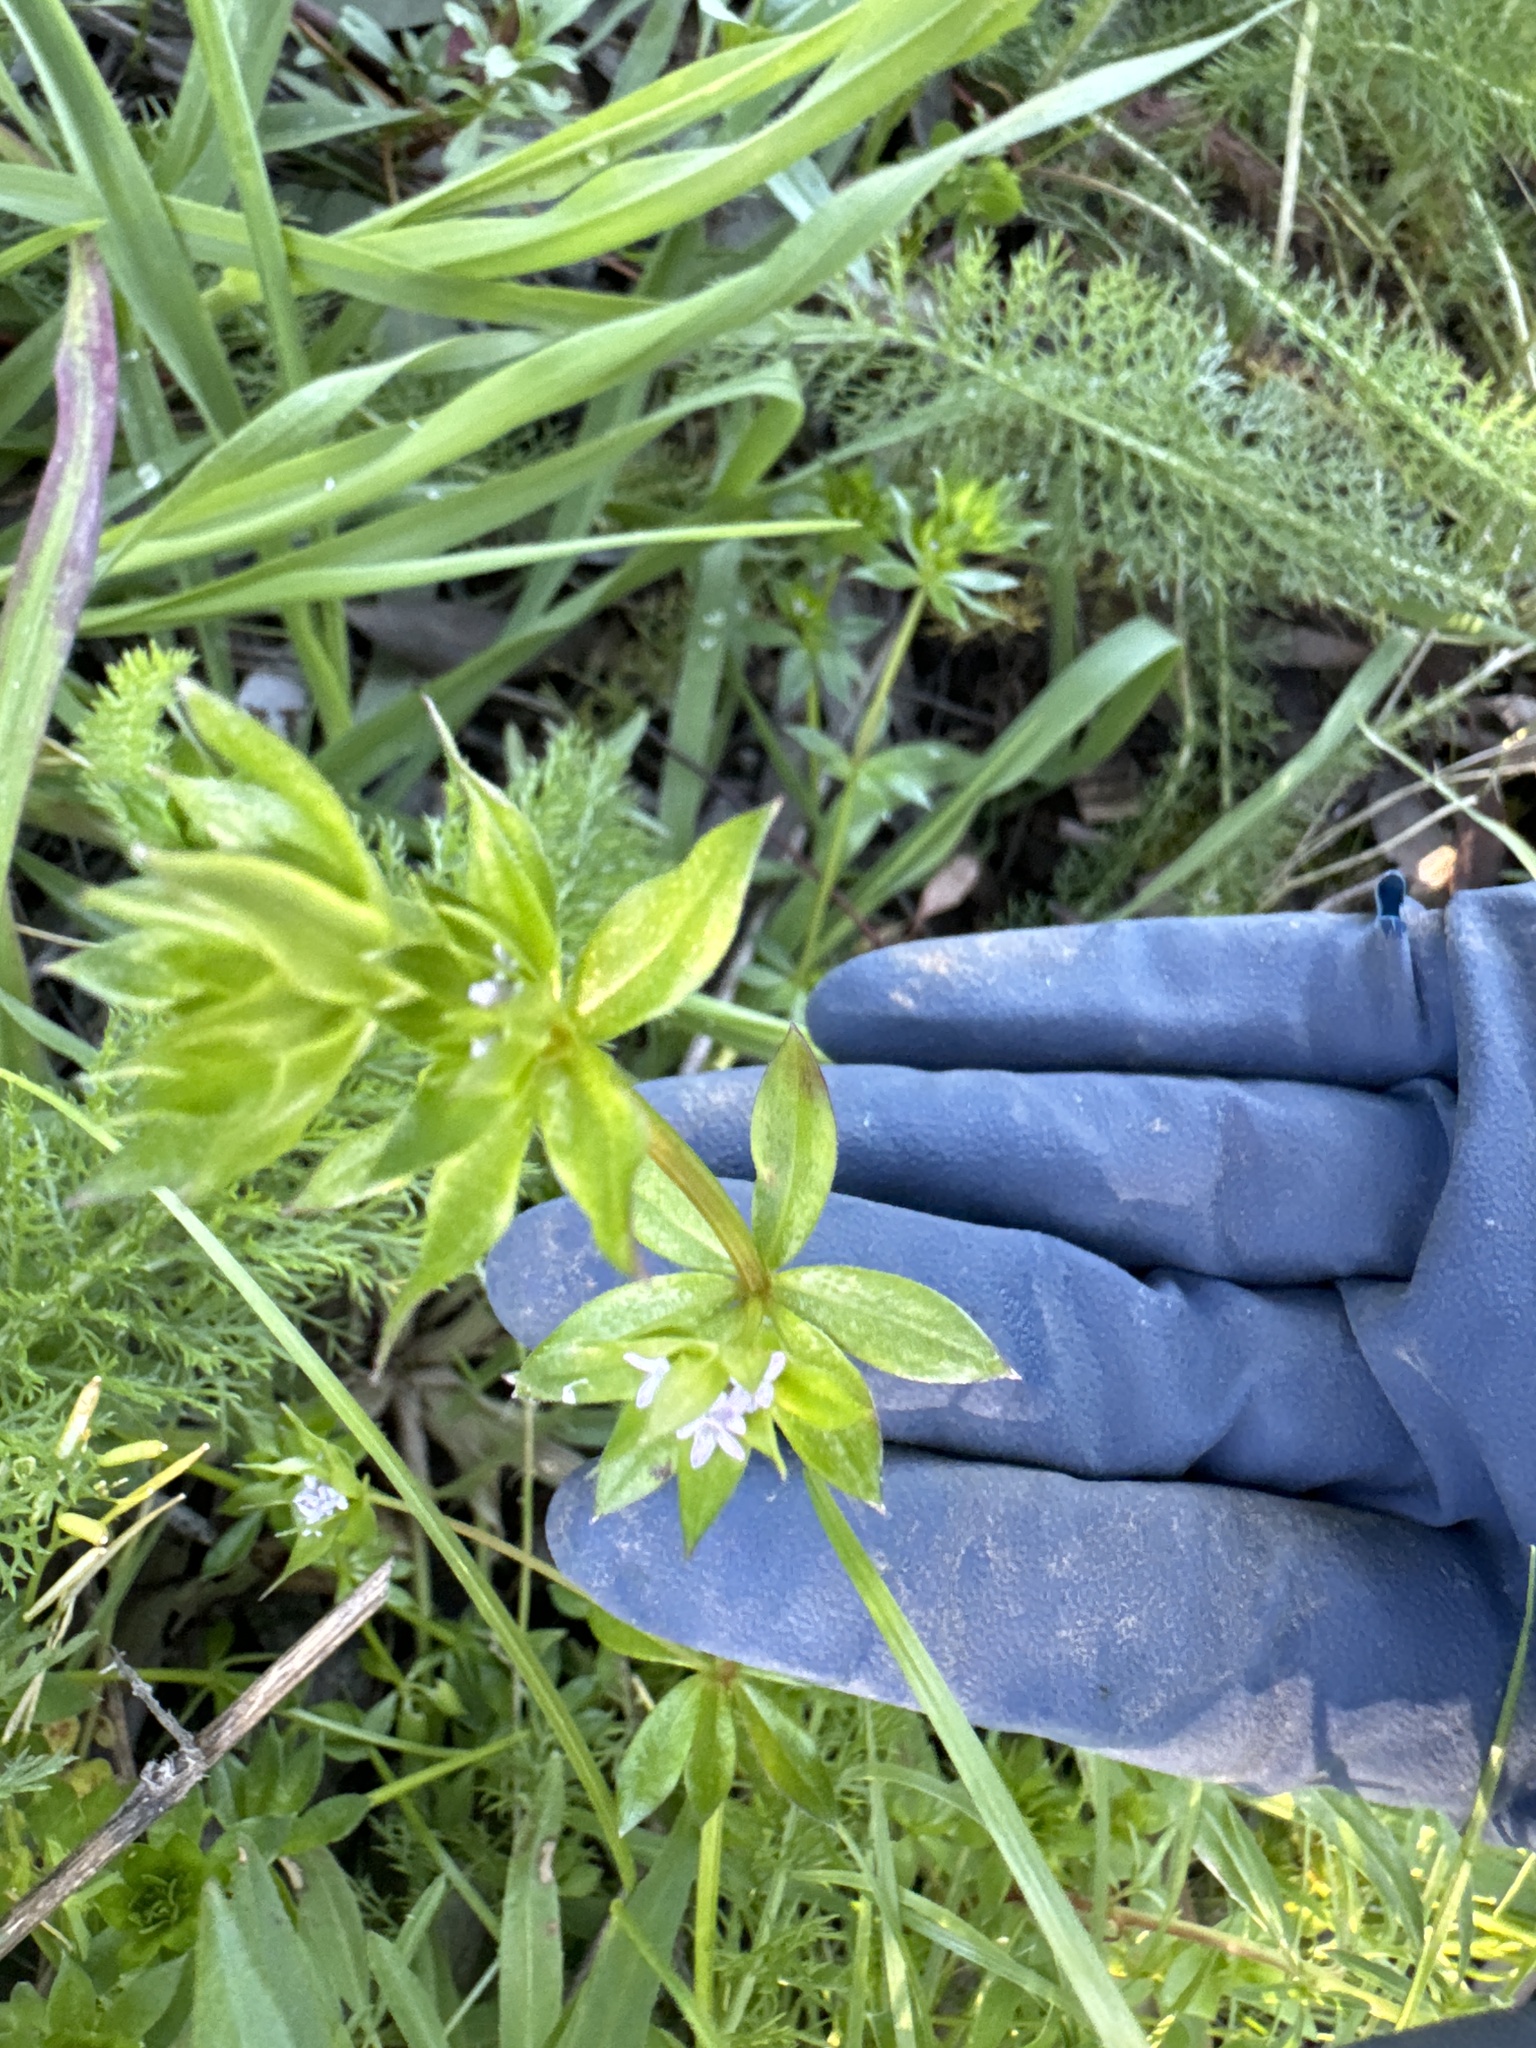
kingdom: Plantae
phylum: Tracheophyta
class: Magnoliopsida
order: Gentianales
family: Rubiaceae
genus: Sherardia
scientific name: Sherardia arvensis
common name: Field madder
